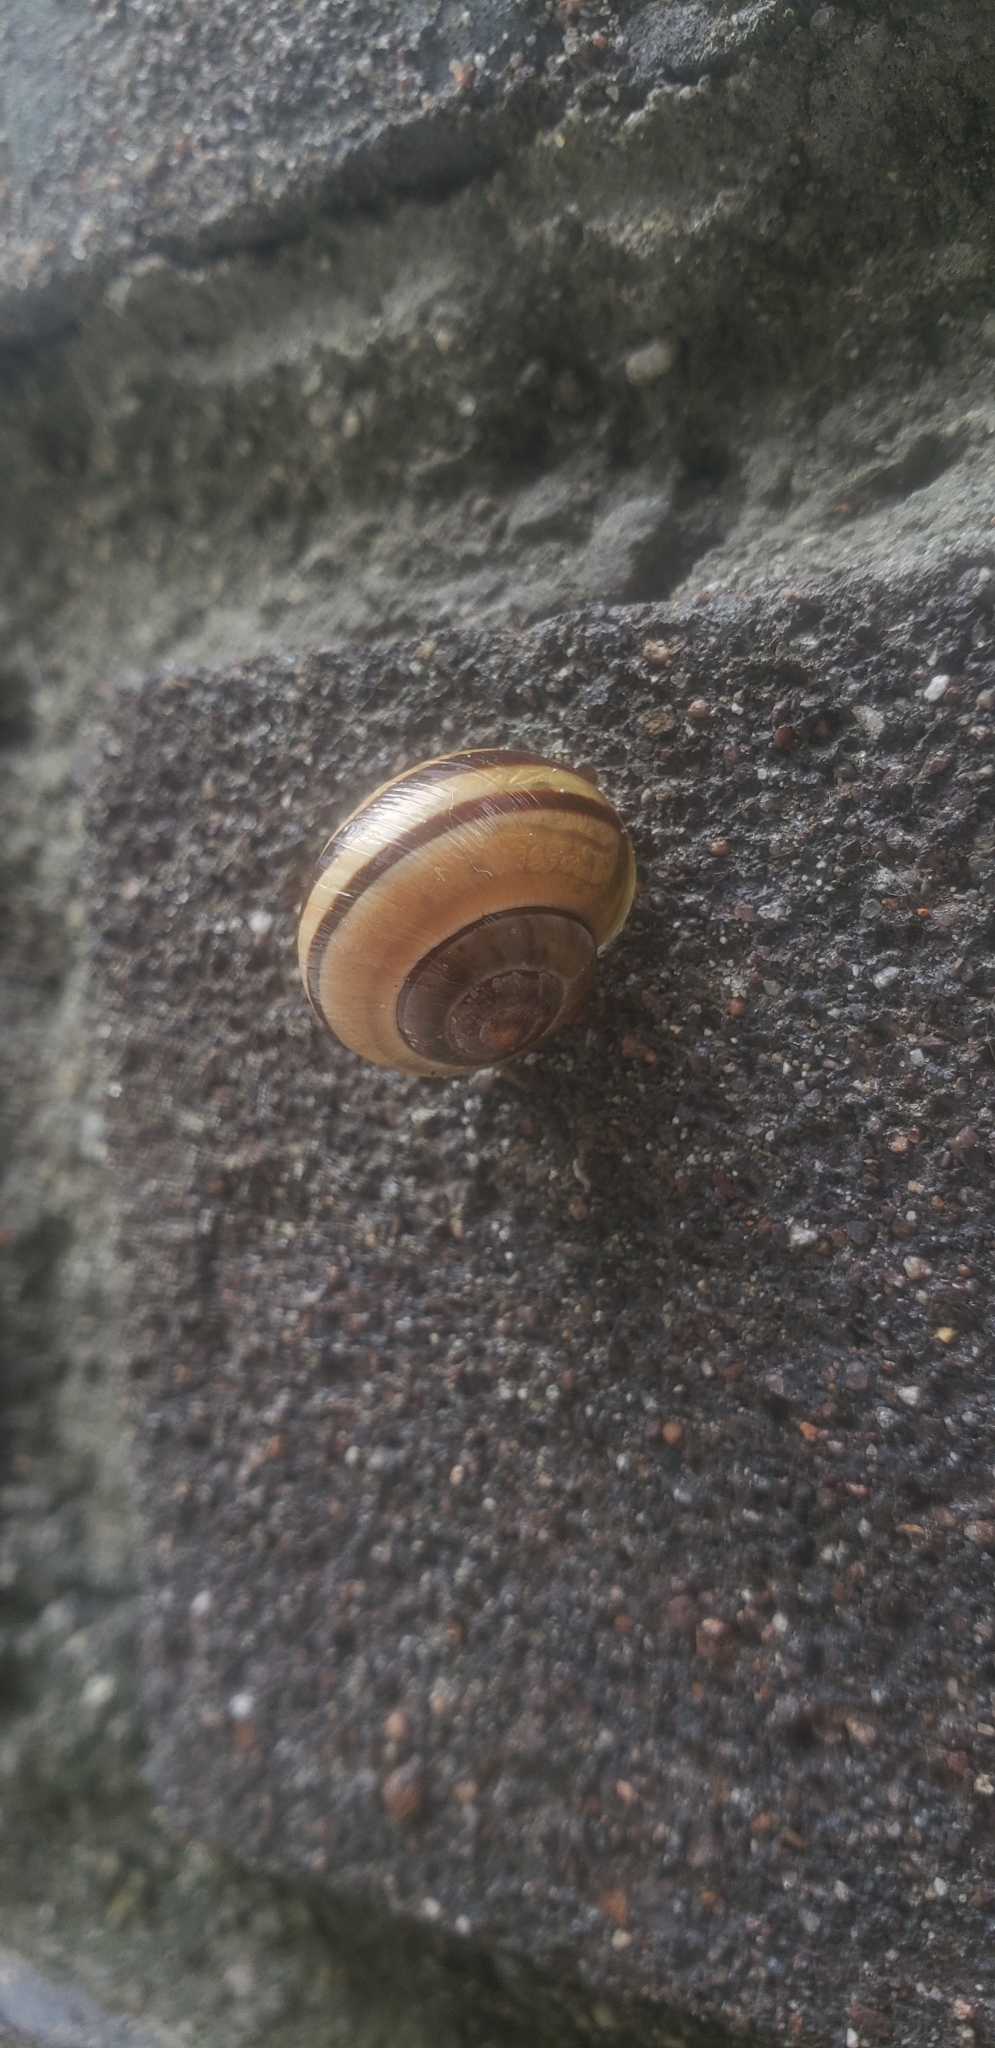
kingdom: Animalia
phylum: Mollusca
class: Gastropoda
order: Stylommatophora
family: Helicidae
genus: Cepaea
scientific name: Cepaea nemoralis
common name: Grovesnail
